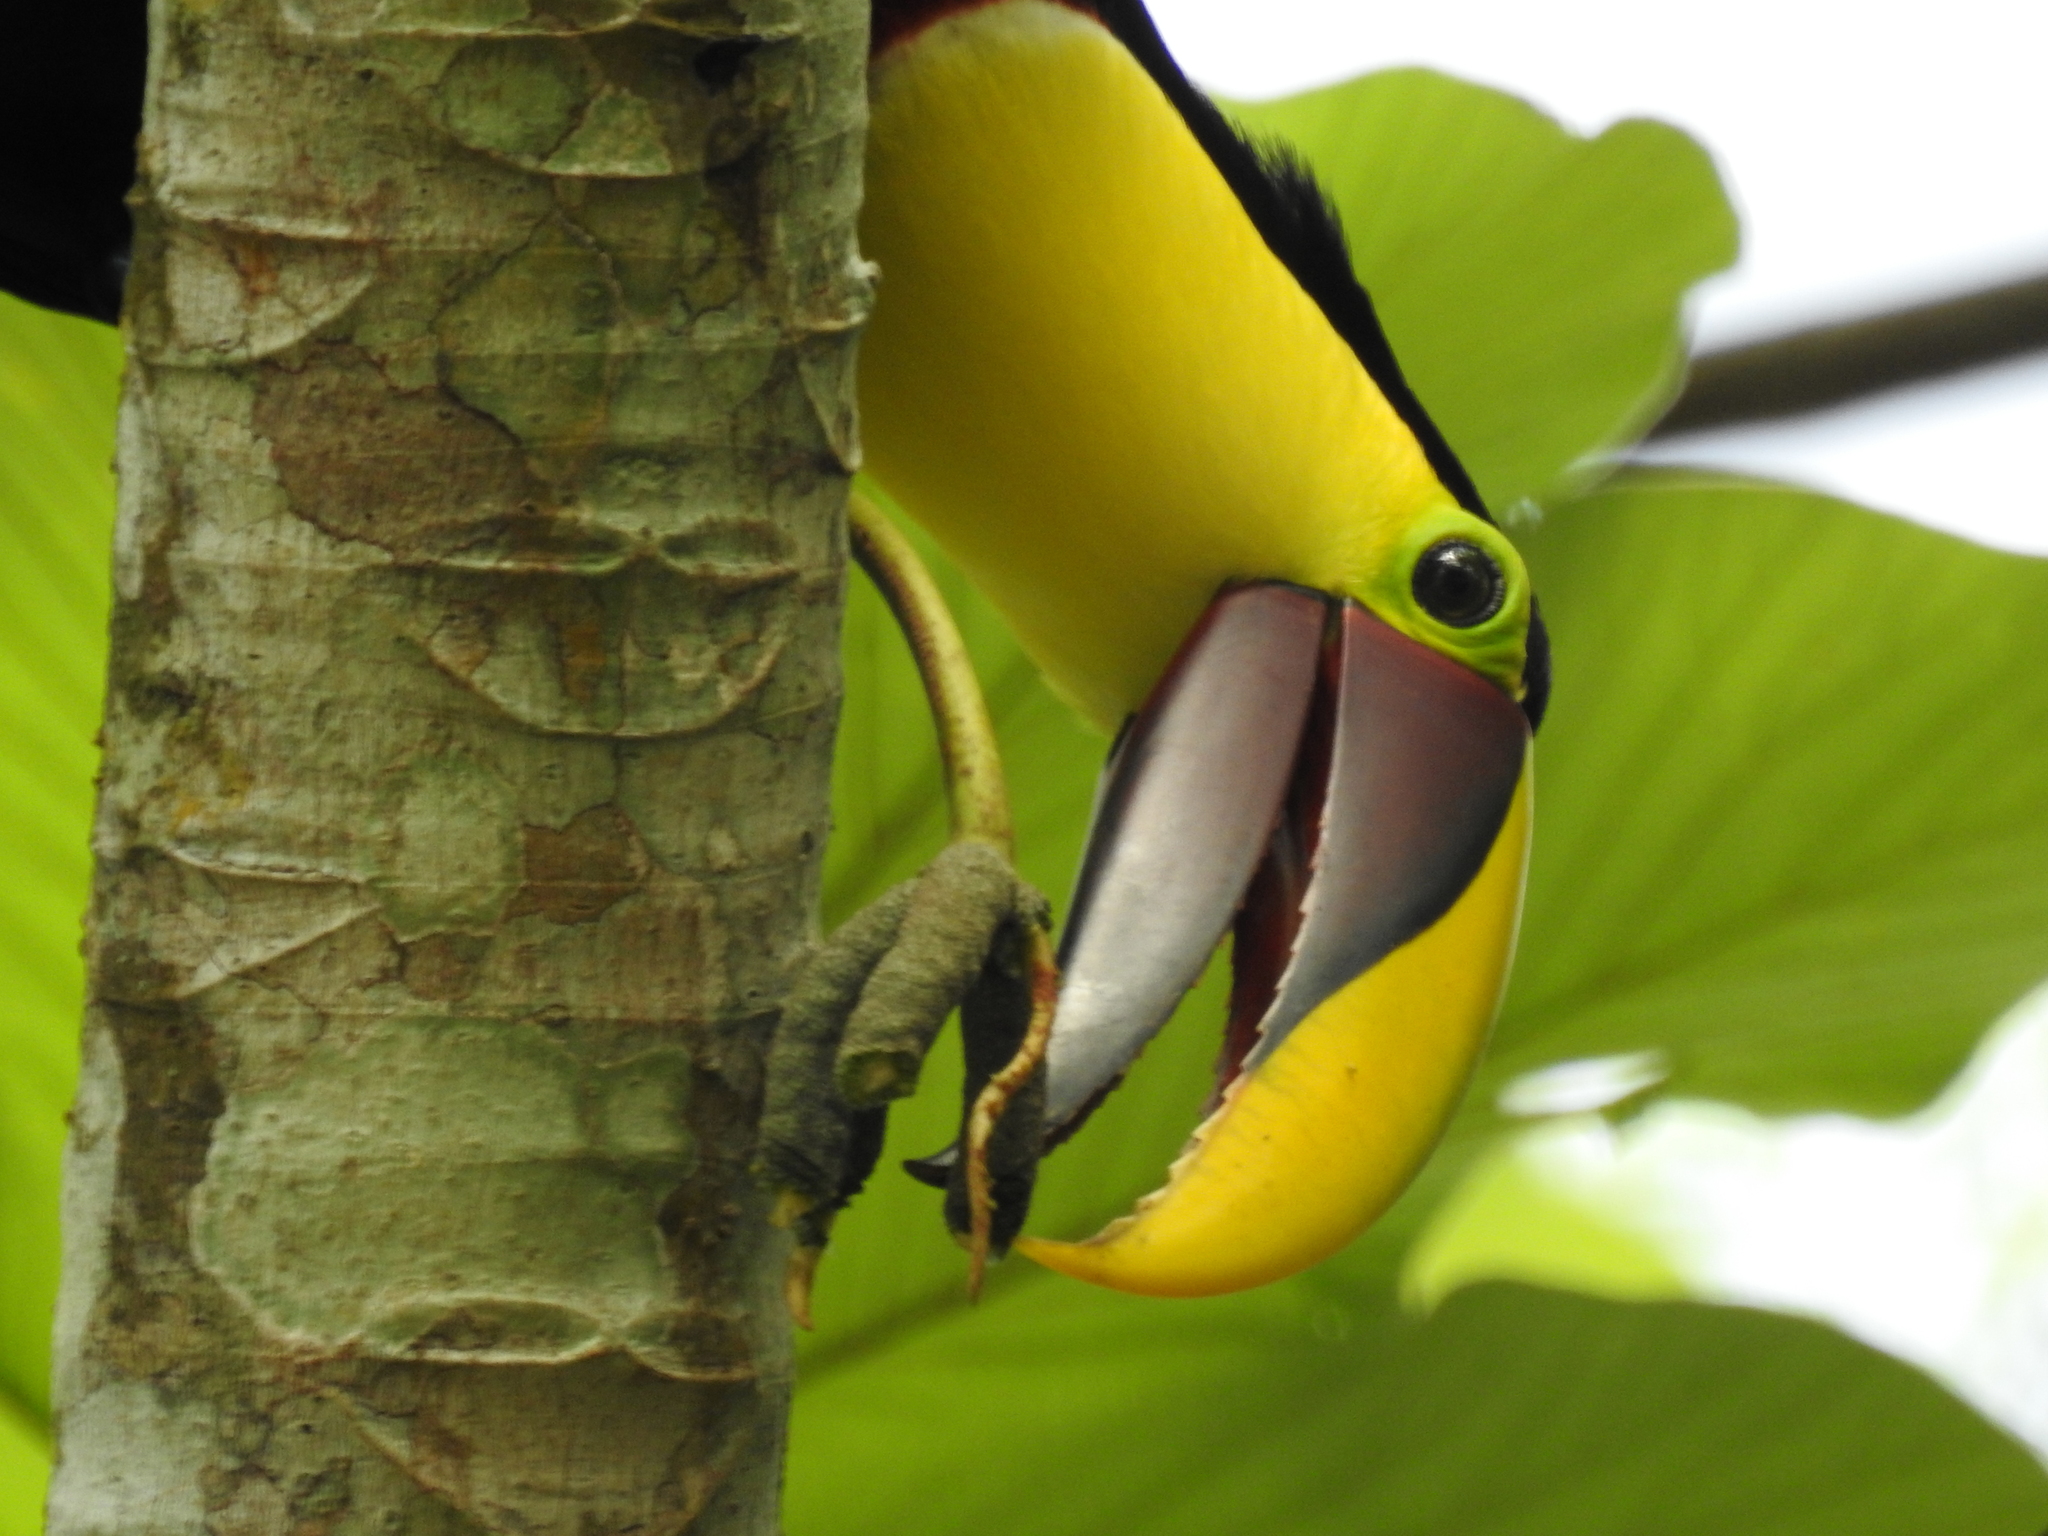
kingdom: Animalia
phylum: Chordata
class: Aves
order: Piciformes
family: Ramphastidae
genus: Ramphastos
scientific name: Ramphastos ambiguus
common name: Yellow-throated toucan
